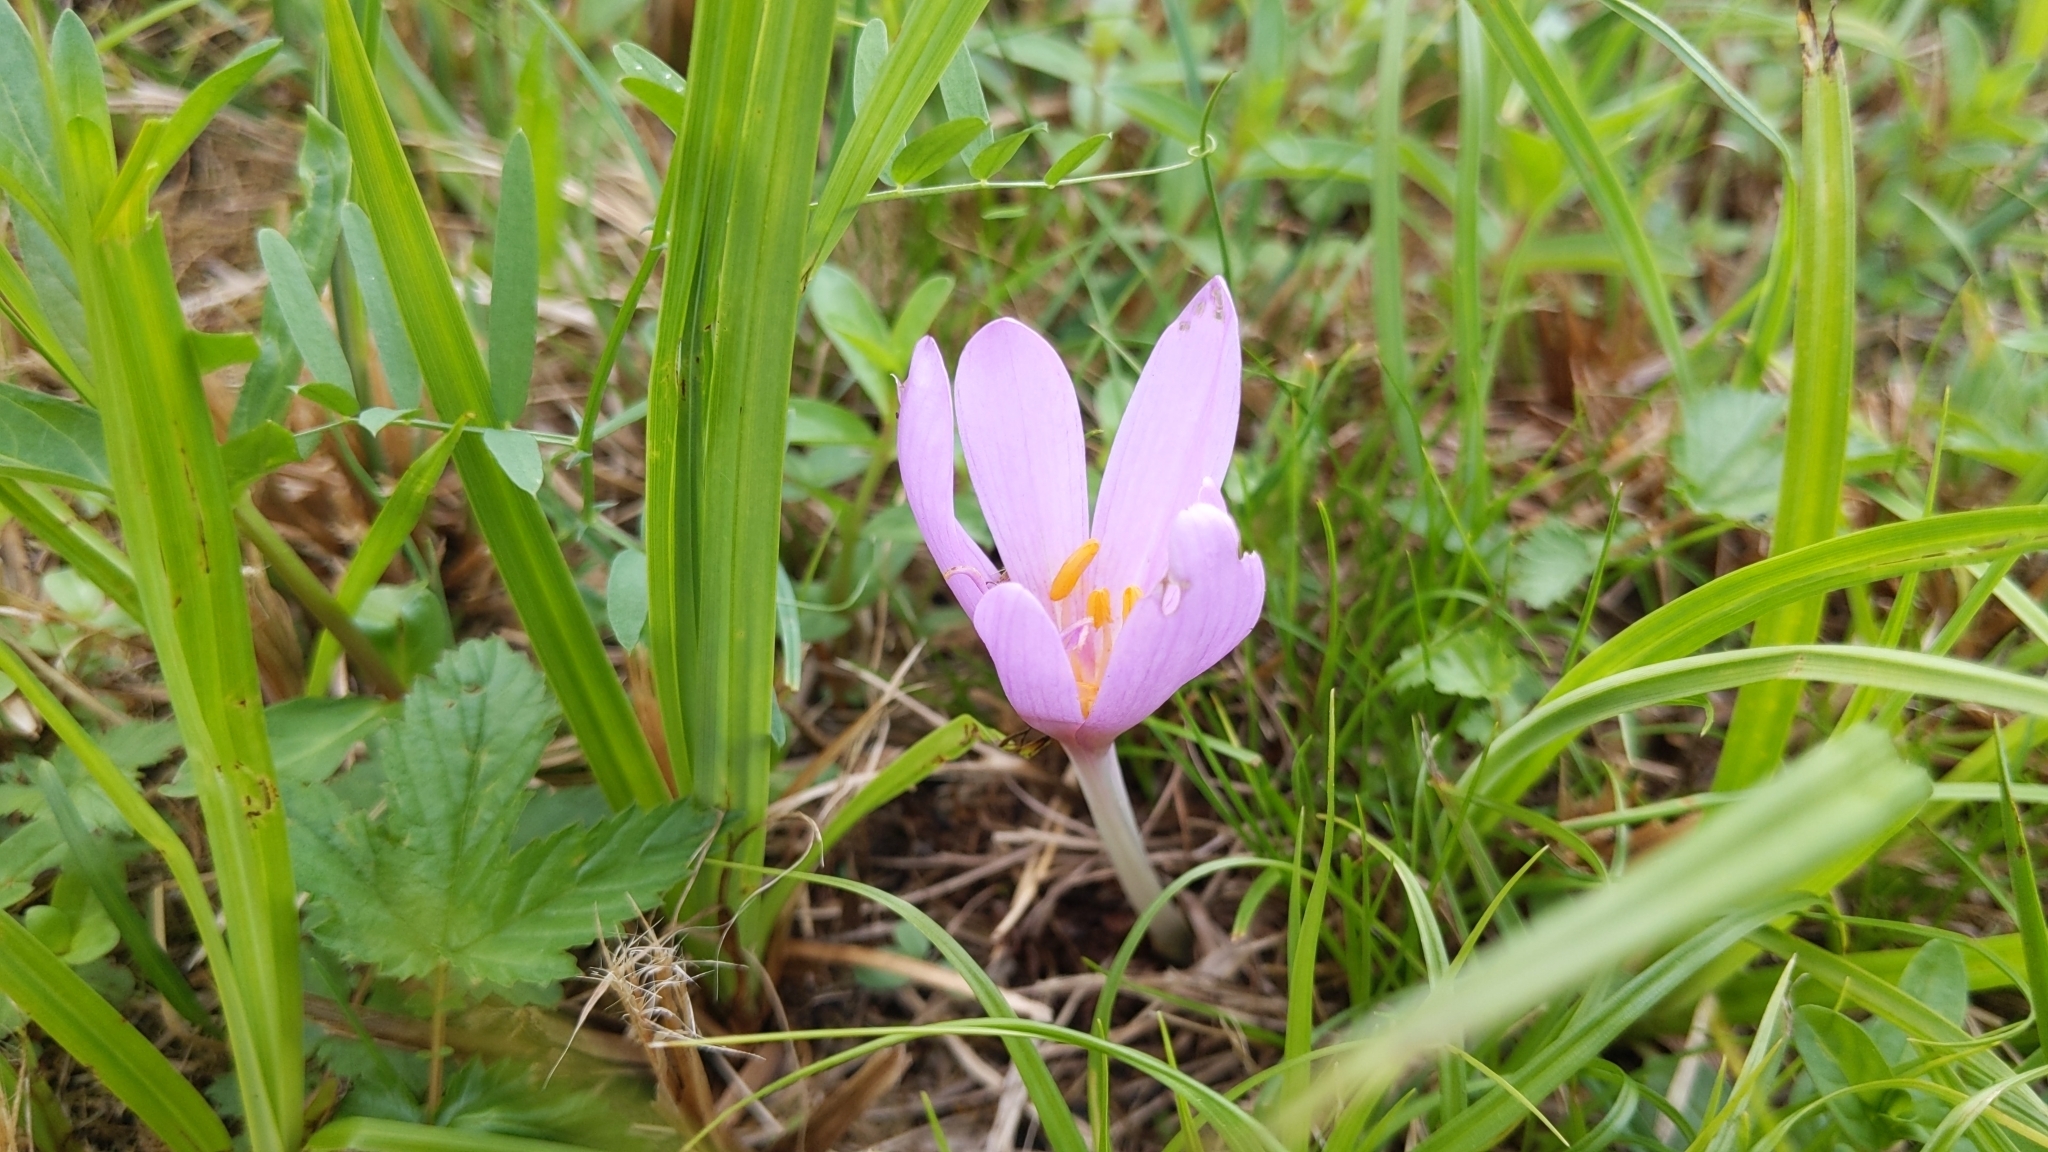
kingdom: Plantae
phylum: Tracheophyta
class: Liliopsida
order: Liliales
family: Colchicaceae
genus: Colchicum
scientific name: Colchicum autumnale
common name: Autumn crocus
